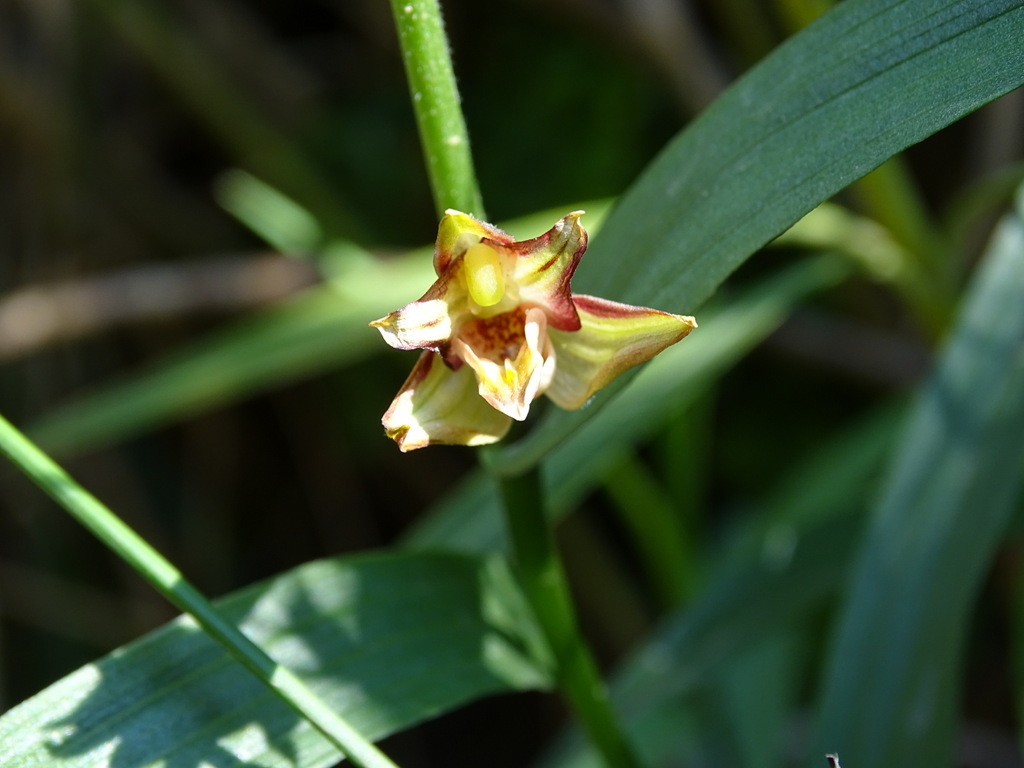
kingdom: Plantae
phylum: Tracheophyta
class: Liliopsida
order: Asparagales
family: Orchidaceae
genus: Epipactis
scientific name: Epipactis veratrifolia
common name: Eastern marsh helleborine
